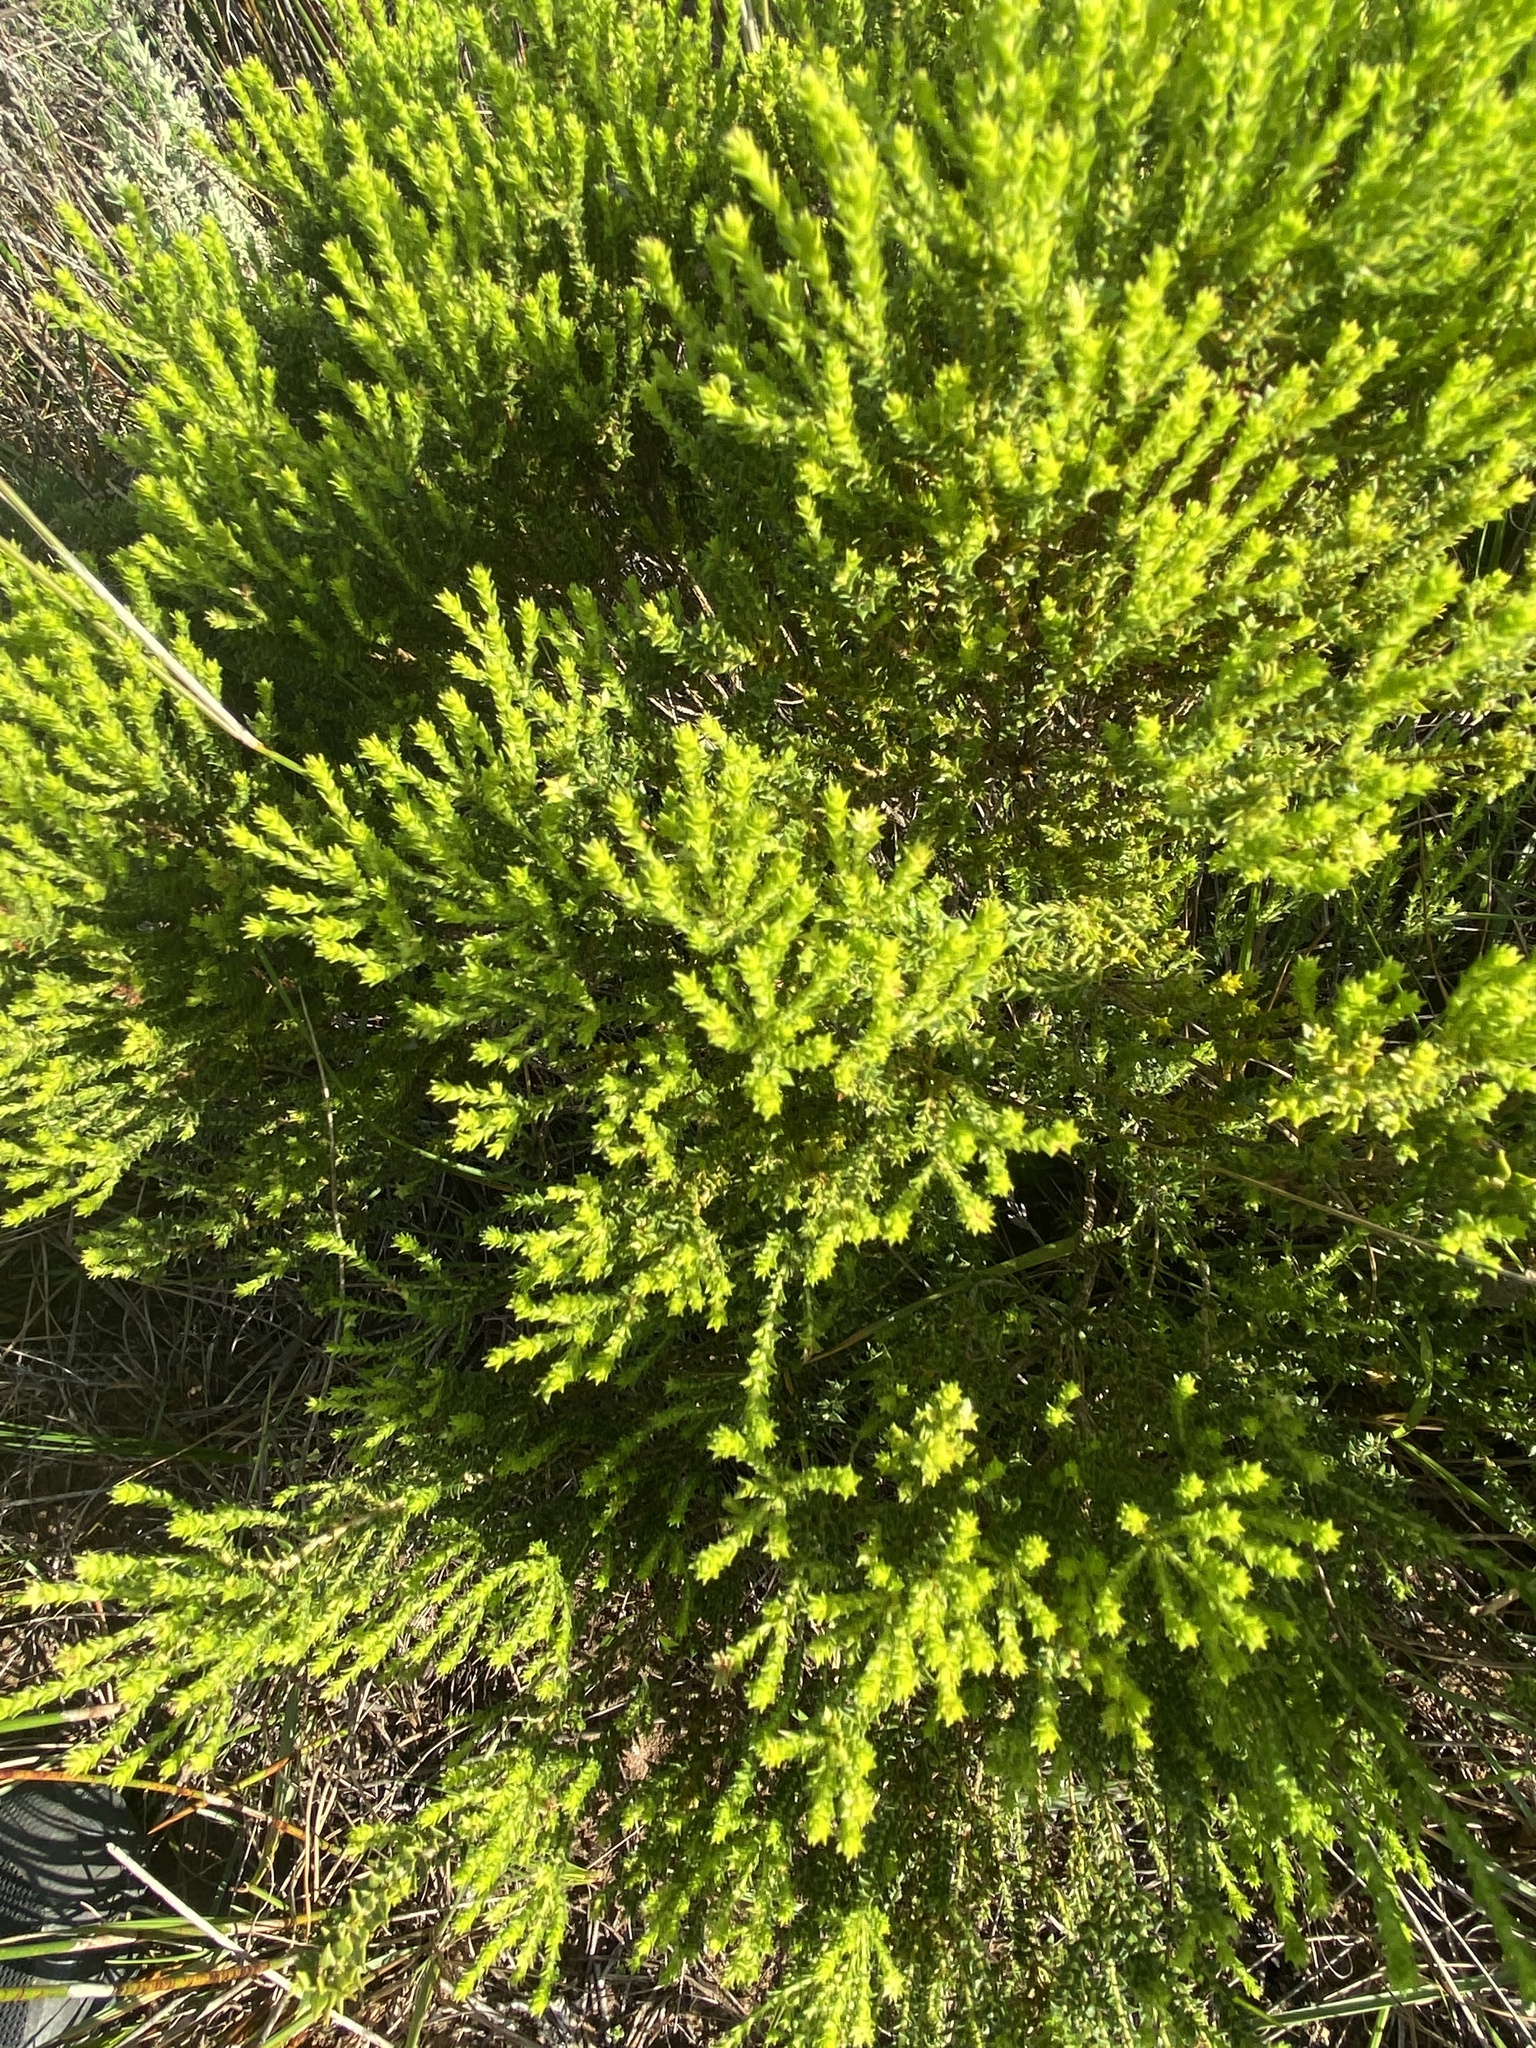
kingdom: Plantae
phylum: Tracheophyta
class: Magnoliopsida
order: Sapindales
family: Rutaceae
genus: Agathosma
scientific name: Agathosma geniculata
